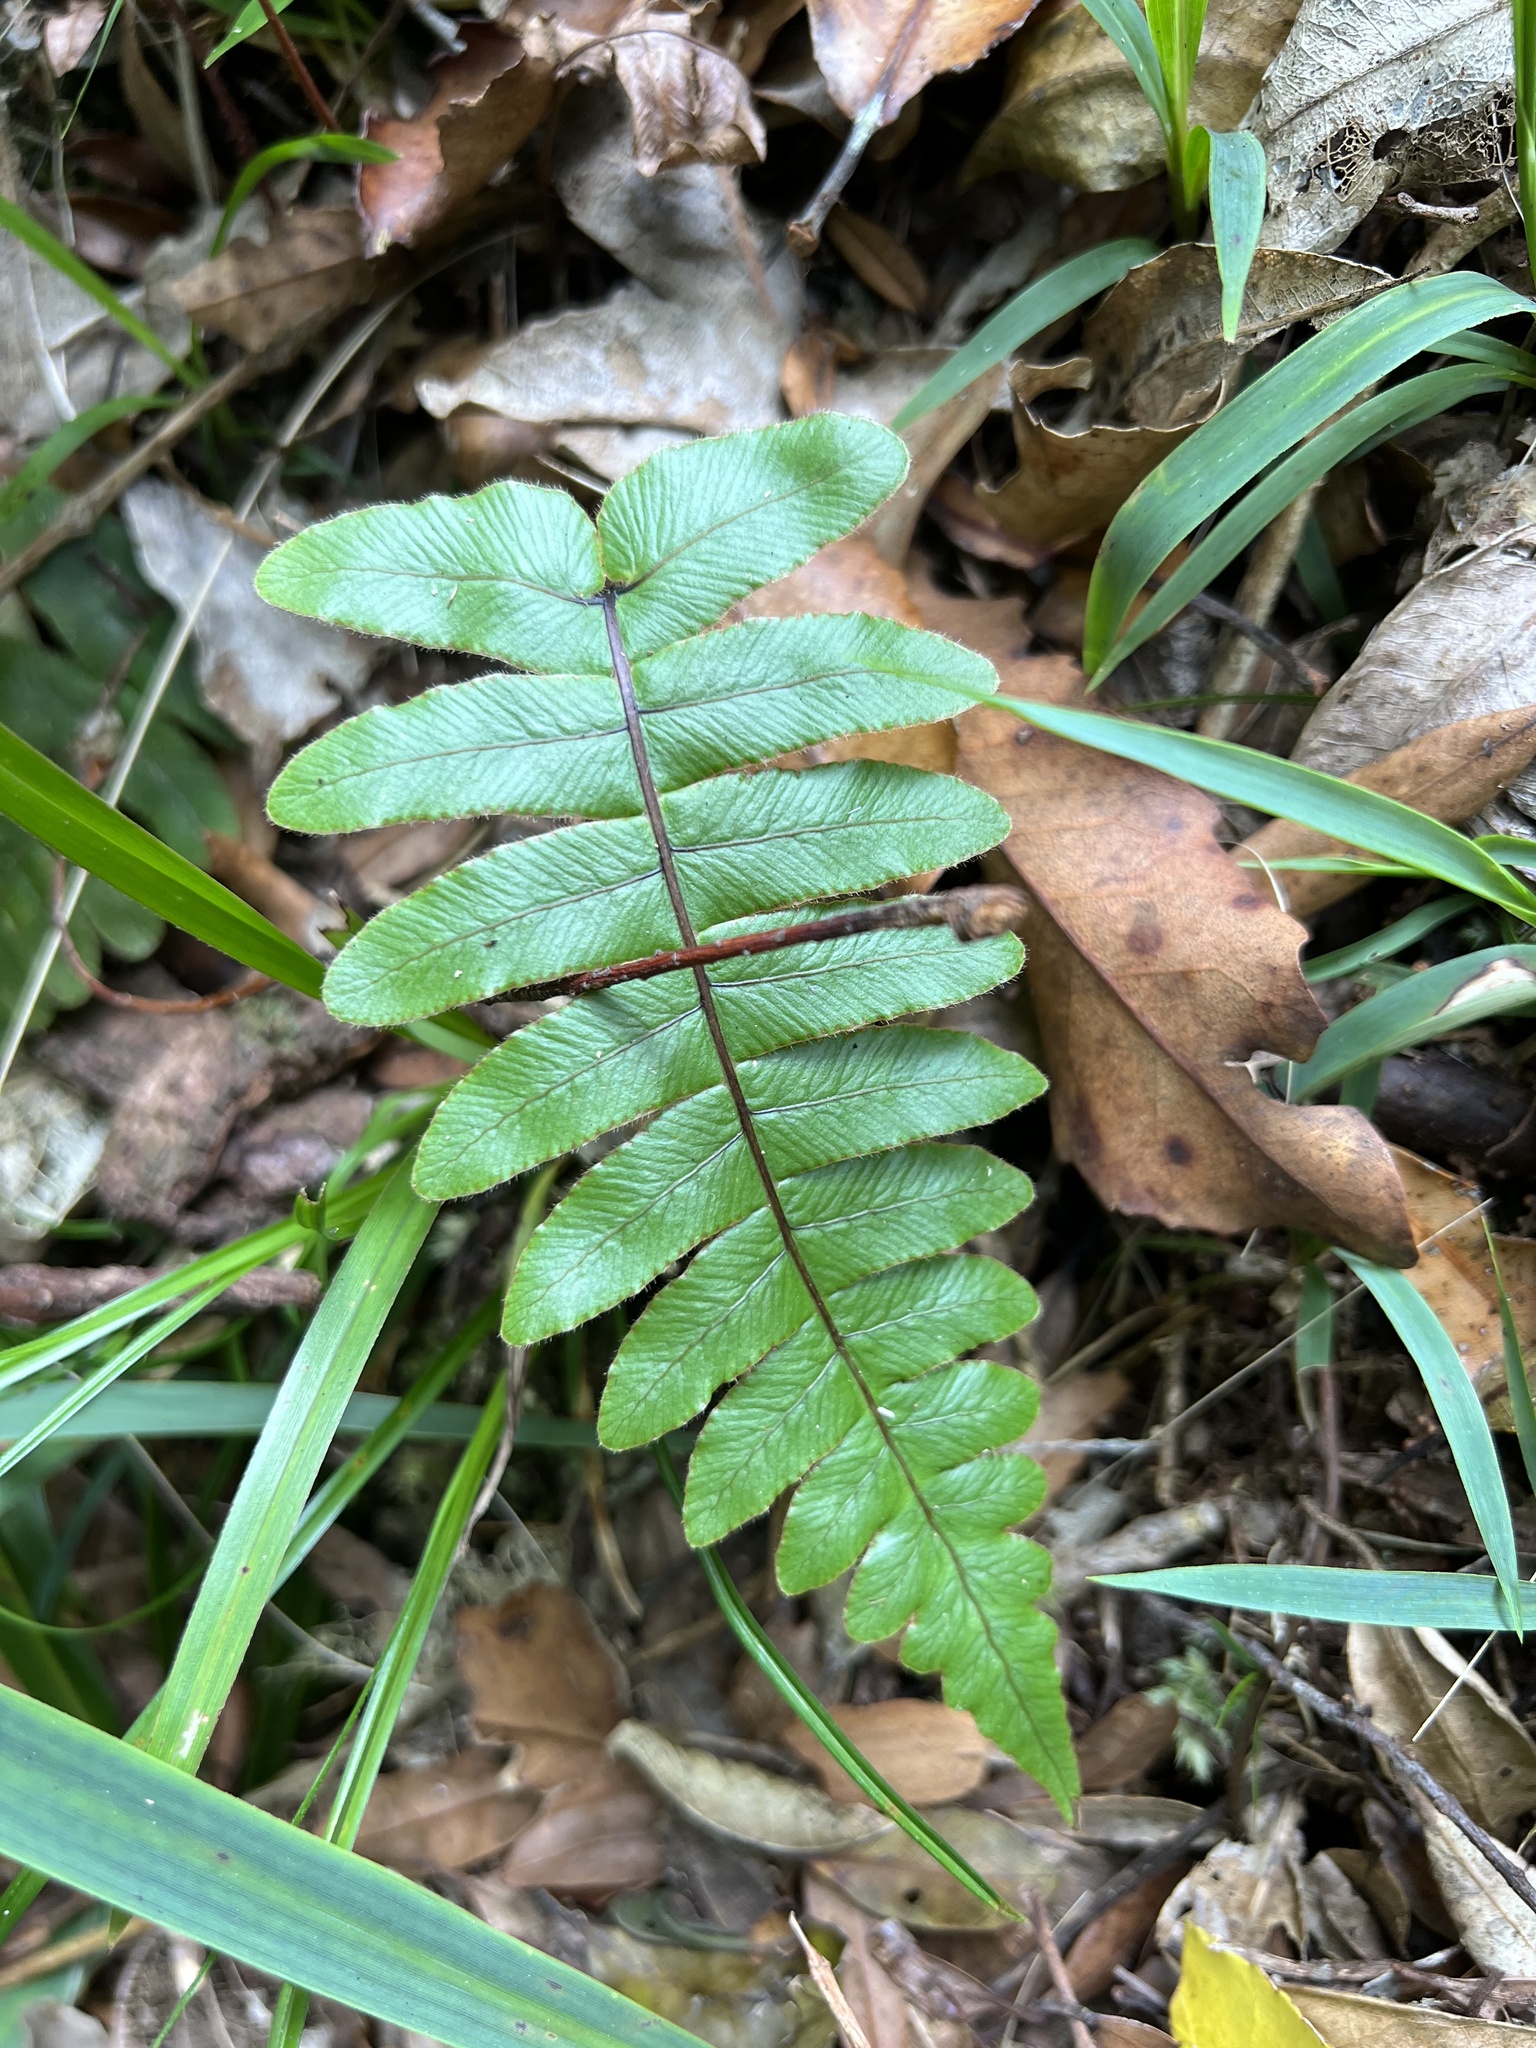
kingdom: Plantae
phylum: Tracheophyta
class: Polypodiopsida
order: Polypodiales
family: Blechnaceae
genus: Cranfillia
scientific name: Cranfillia deltoides
